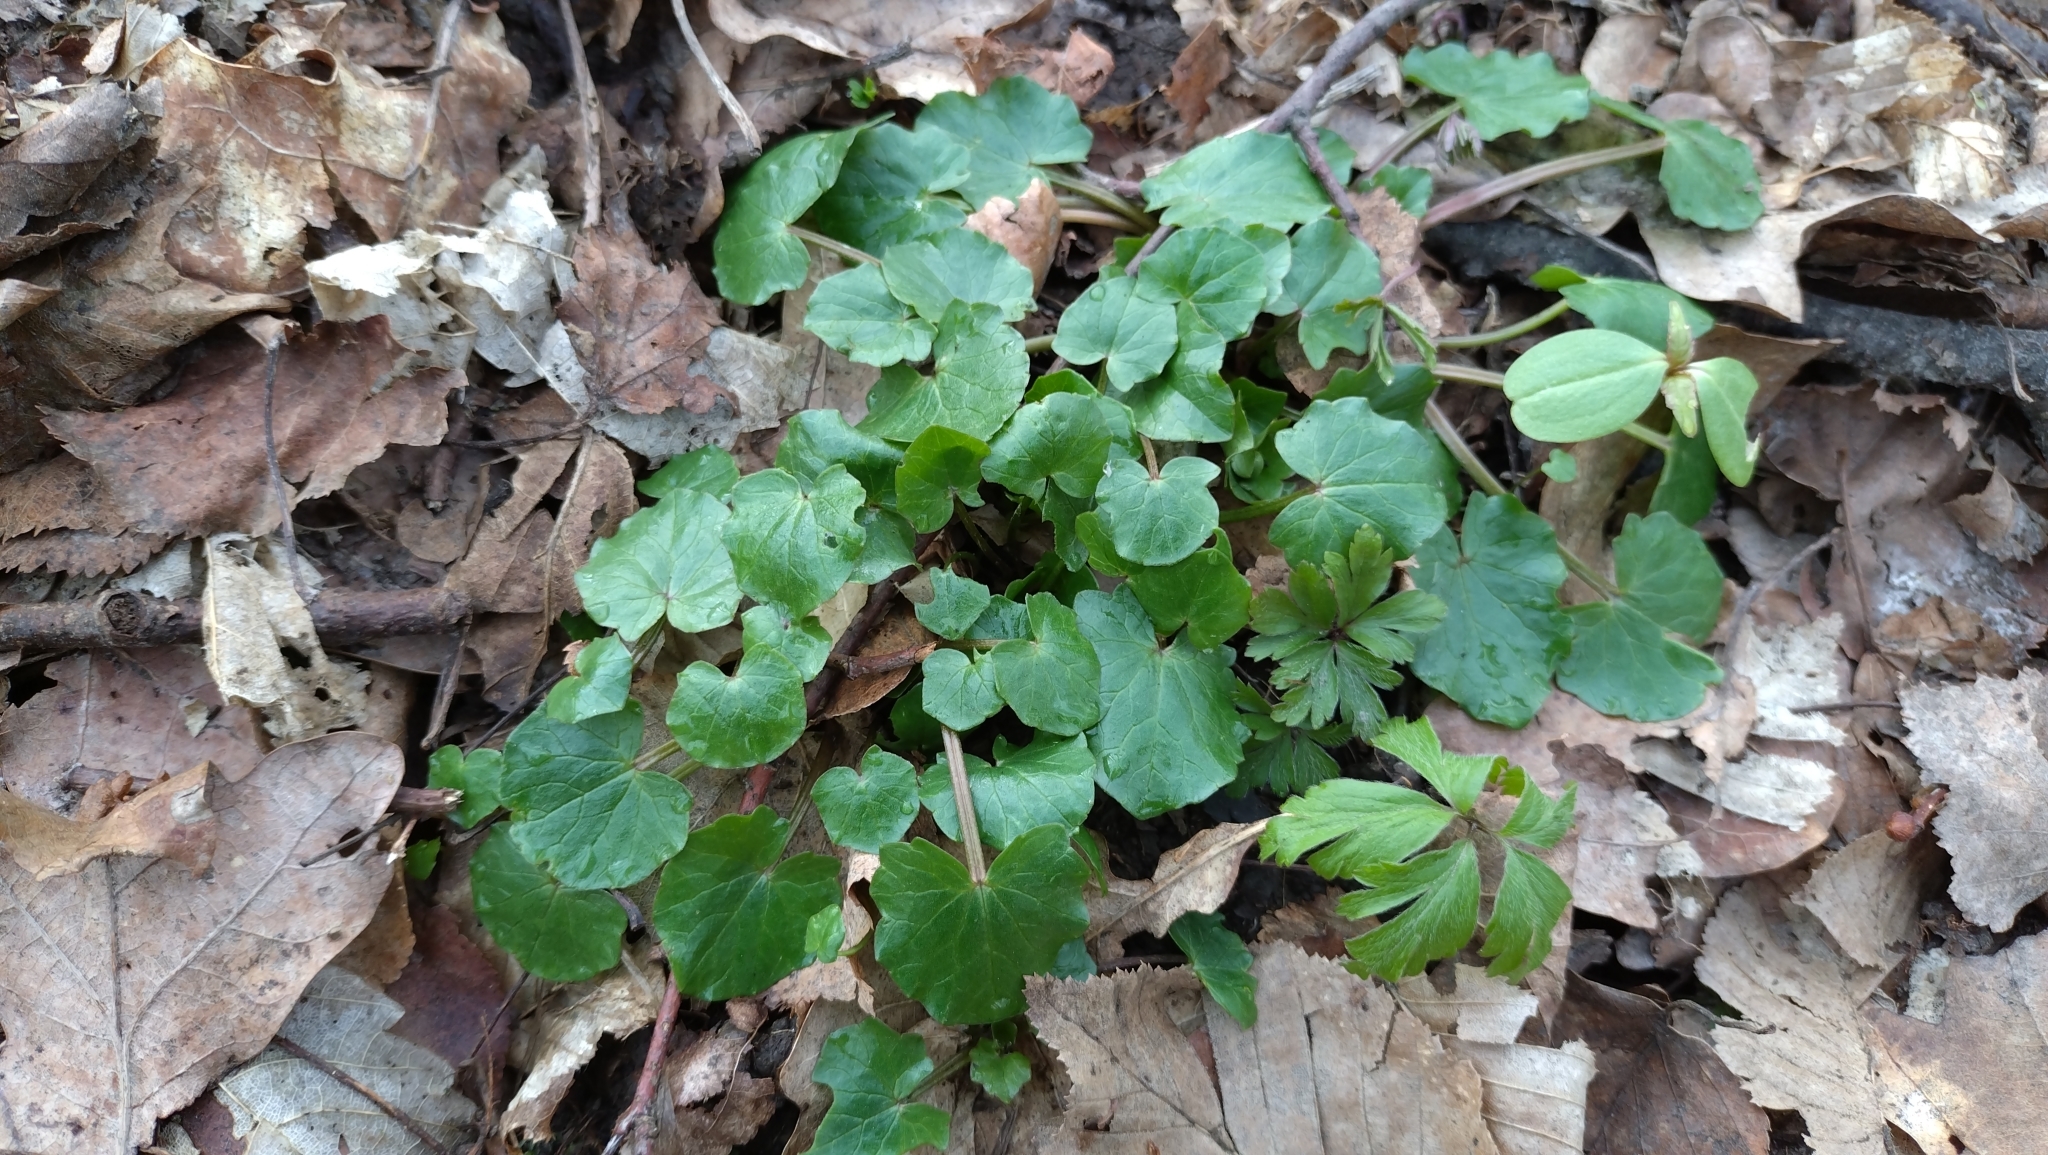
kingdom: Plantae
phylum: Tracheophyta
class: Magnoliopsida
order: Ranunculales
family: Ranunculaceae
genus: Ficaria
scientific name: Ficaria verna
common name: Lesser celandine
